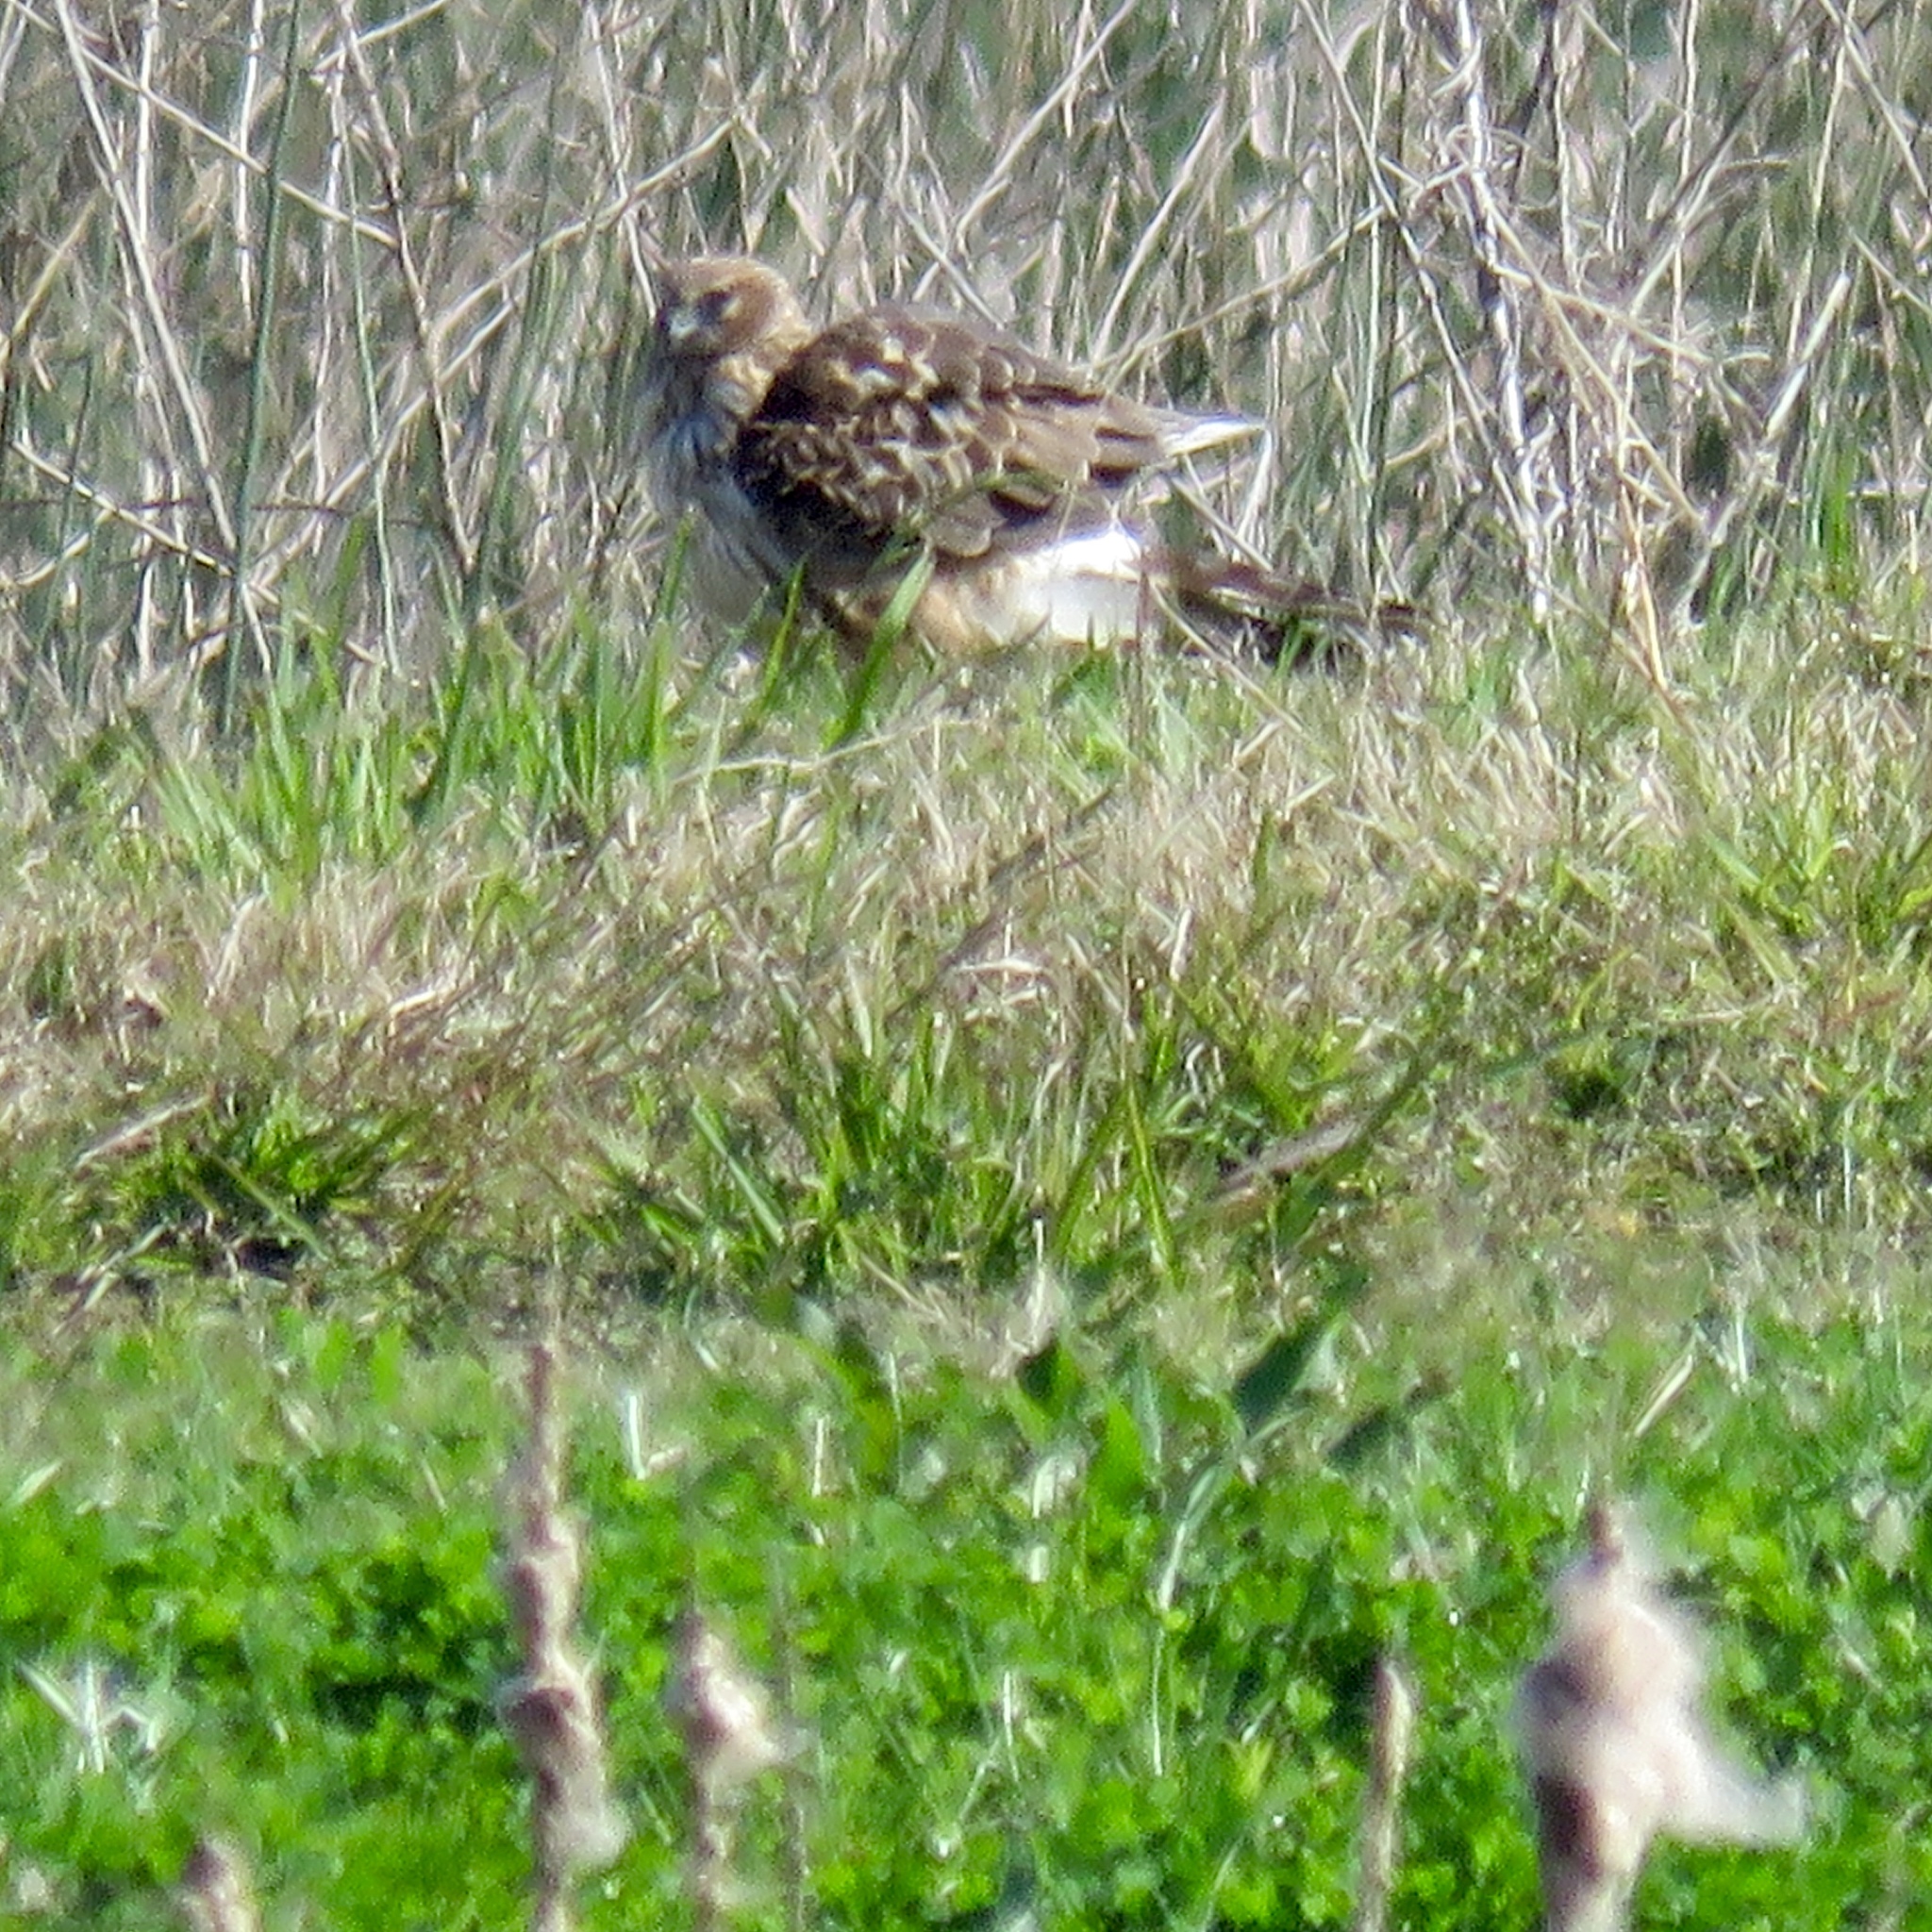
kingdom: Animalia
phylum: Chordata
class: Aves
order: Accipitriformes
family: Accipitridae
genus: Circus
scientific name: Circus cyaneus
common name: Hen harrier
